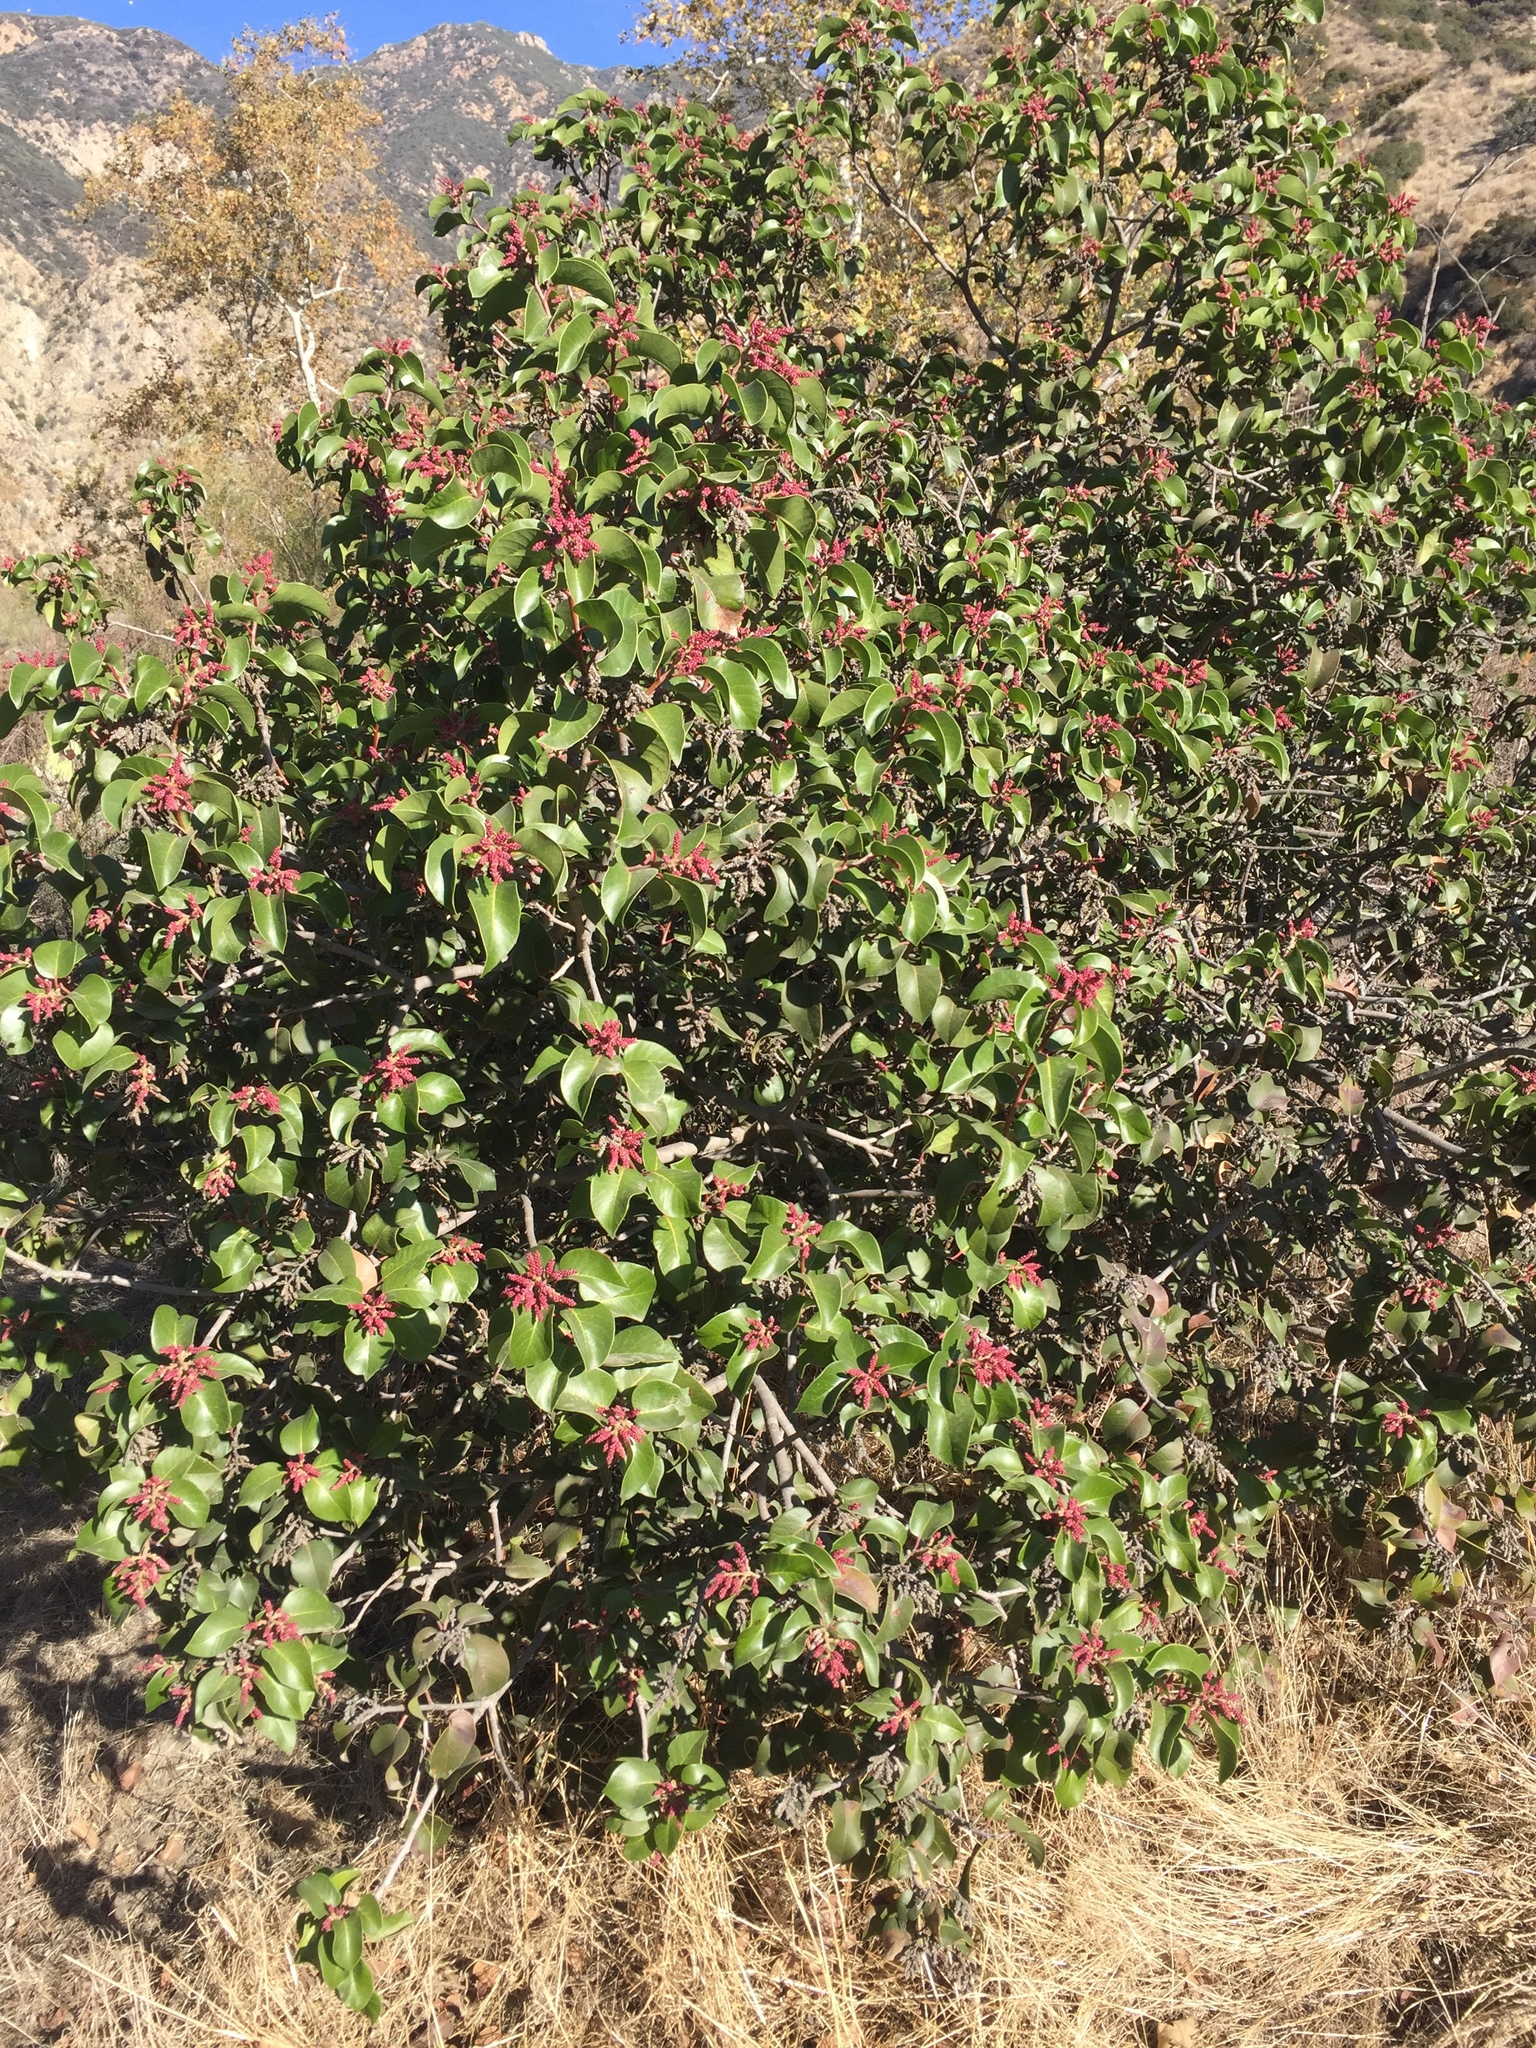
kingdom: Plantae
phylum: Tracheophyta
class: Magnoliopsida
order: Sapindales
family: Anacardiaceae
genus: Rhus
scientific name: Rhus ovata
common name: Sugar sumac
